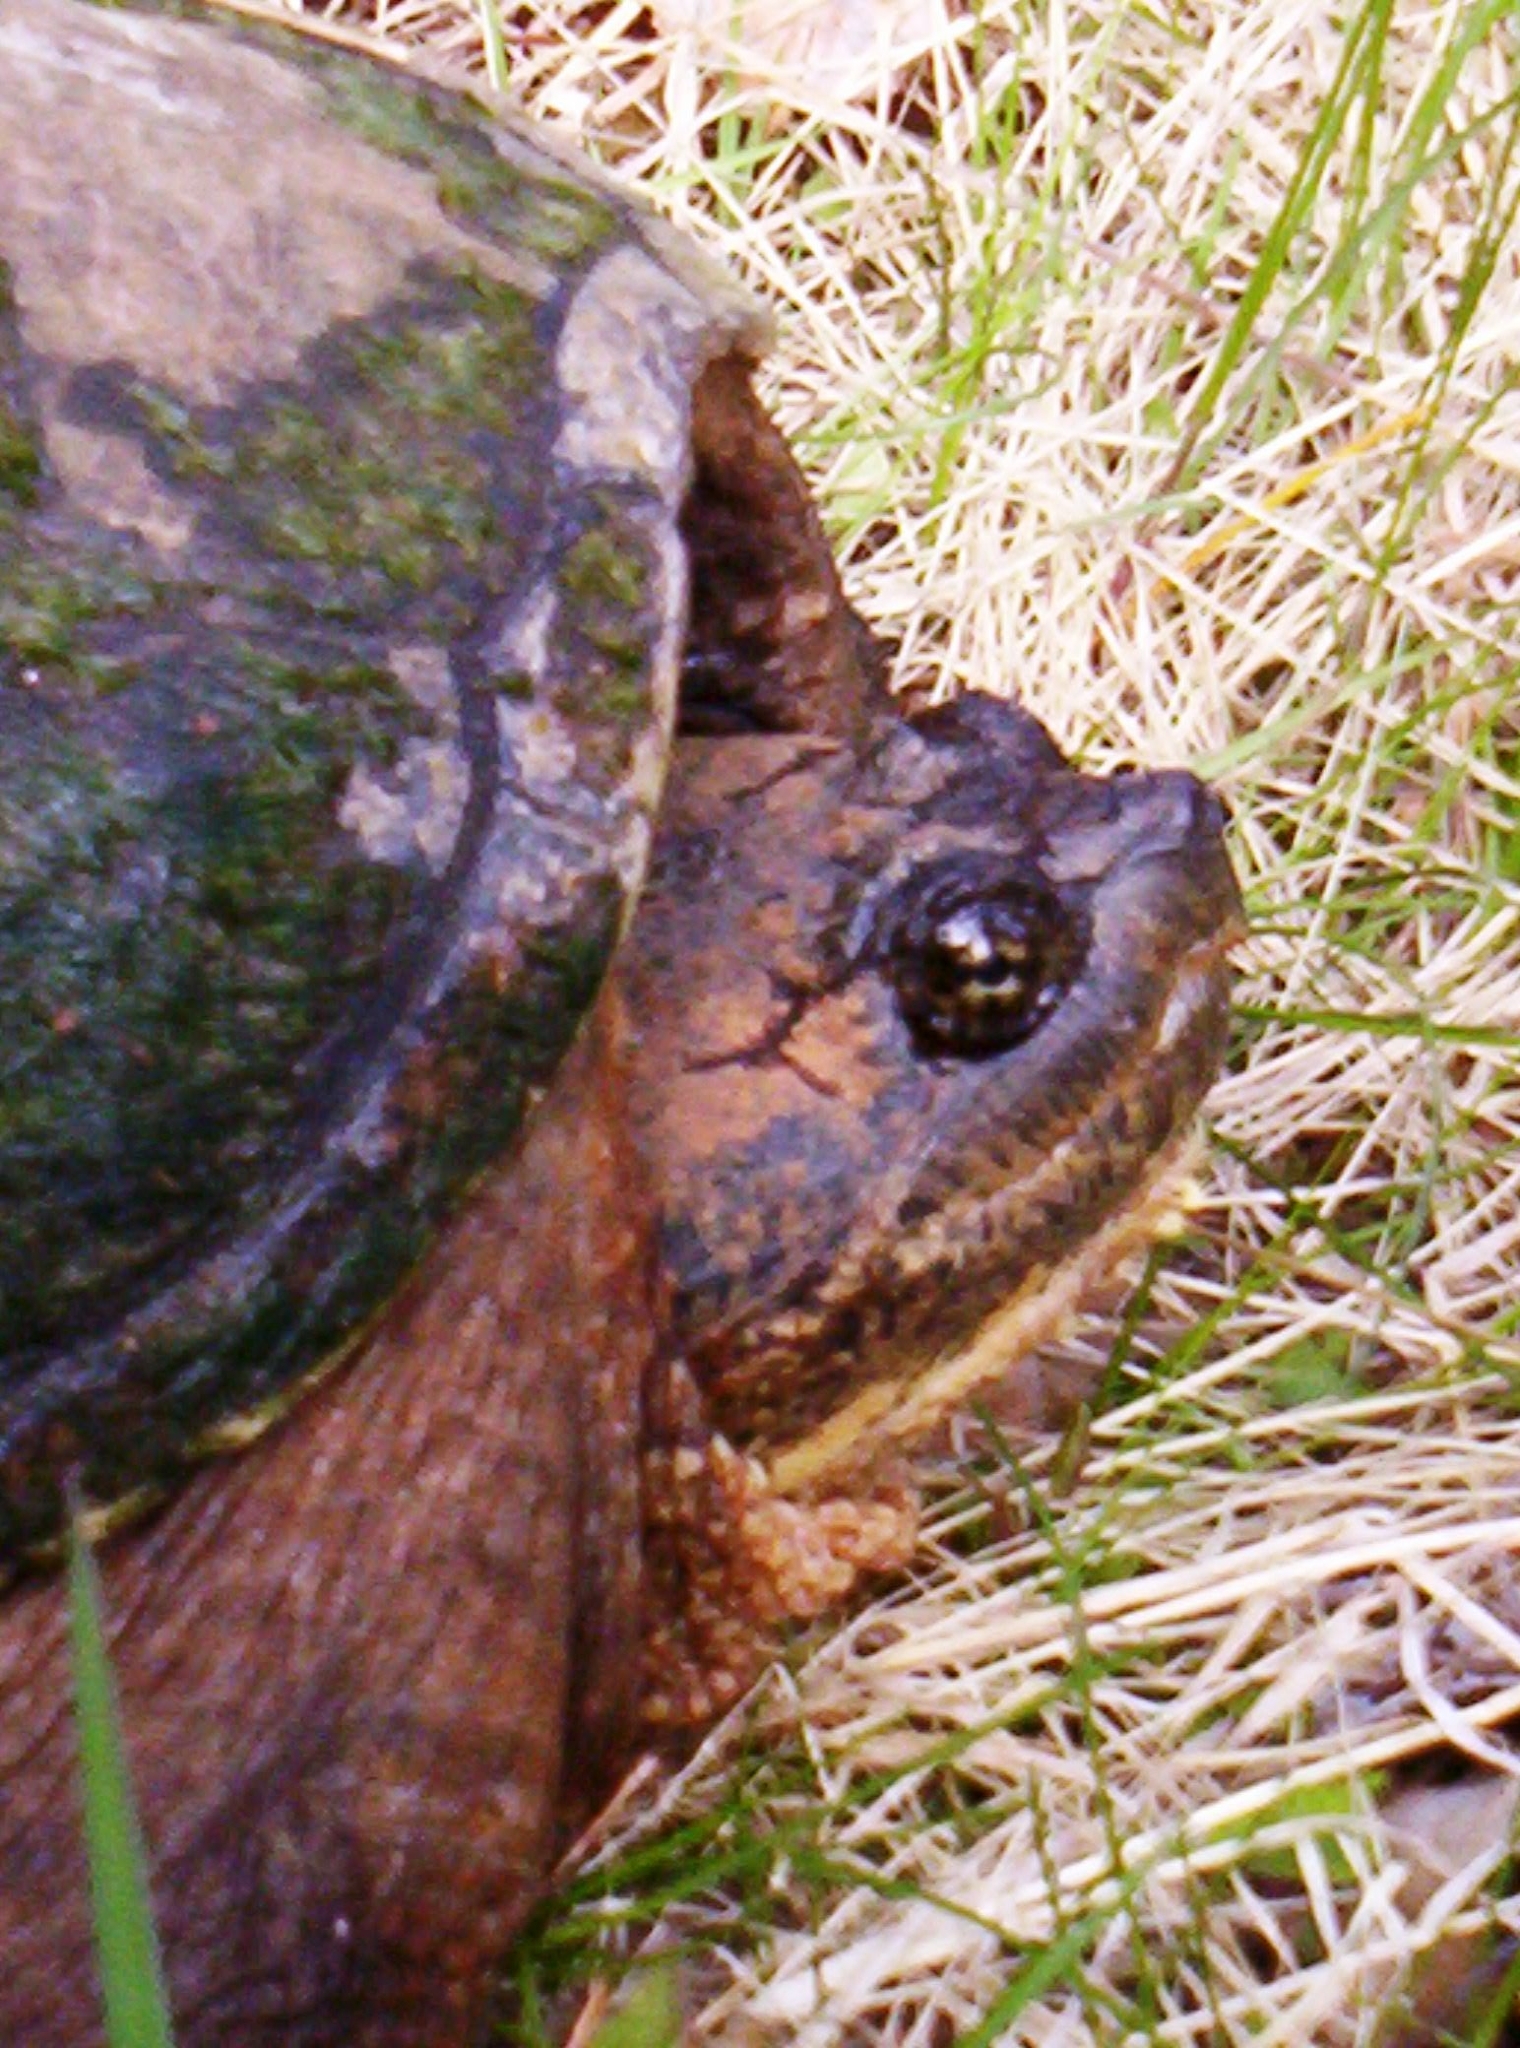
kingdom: Animalia
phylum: Chordata
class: Testudines
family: Chelydridae
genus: Chelydra
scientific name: Chelydra serpentina
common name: Common snapping turtle
